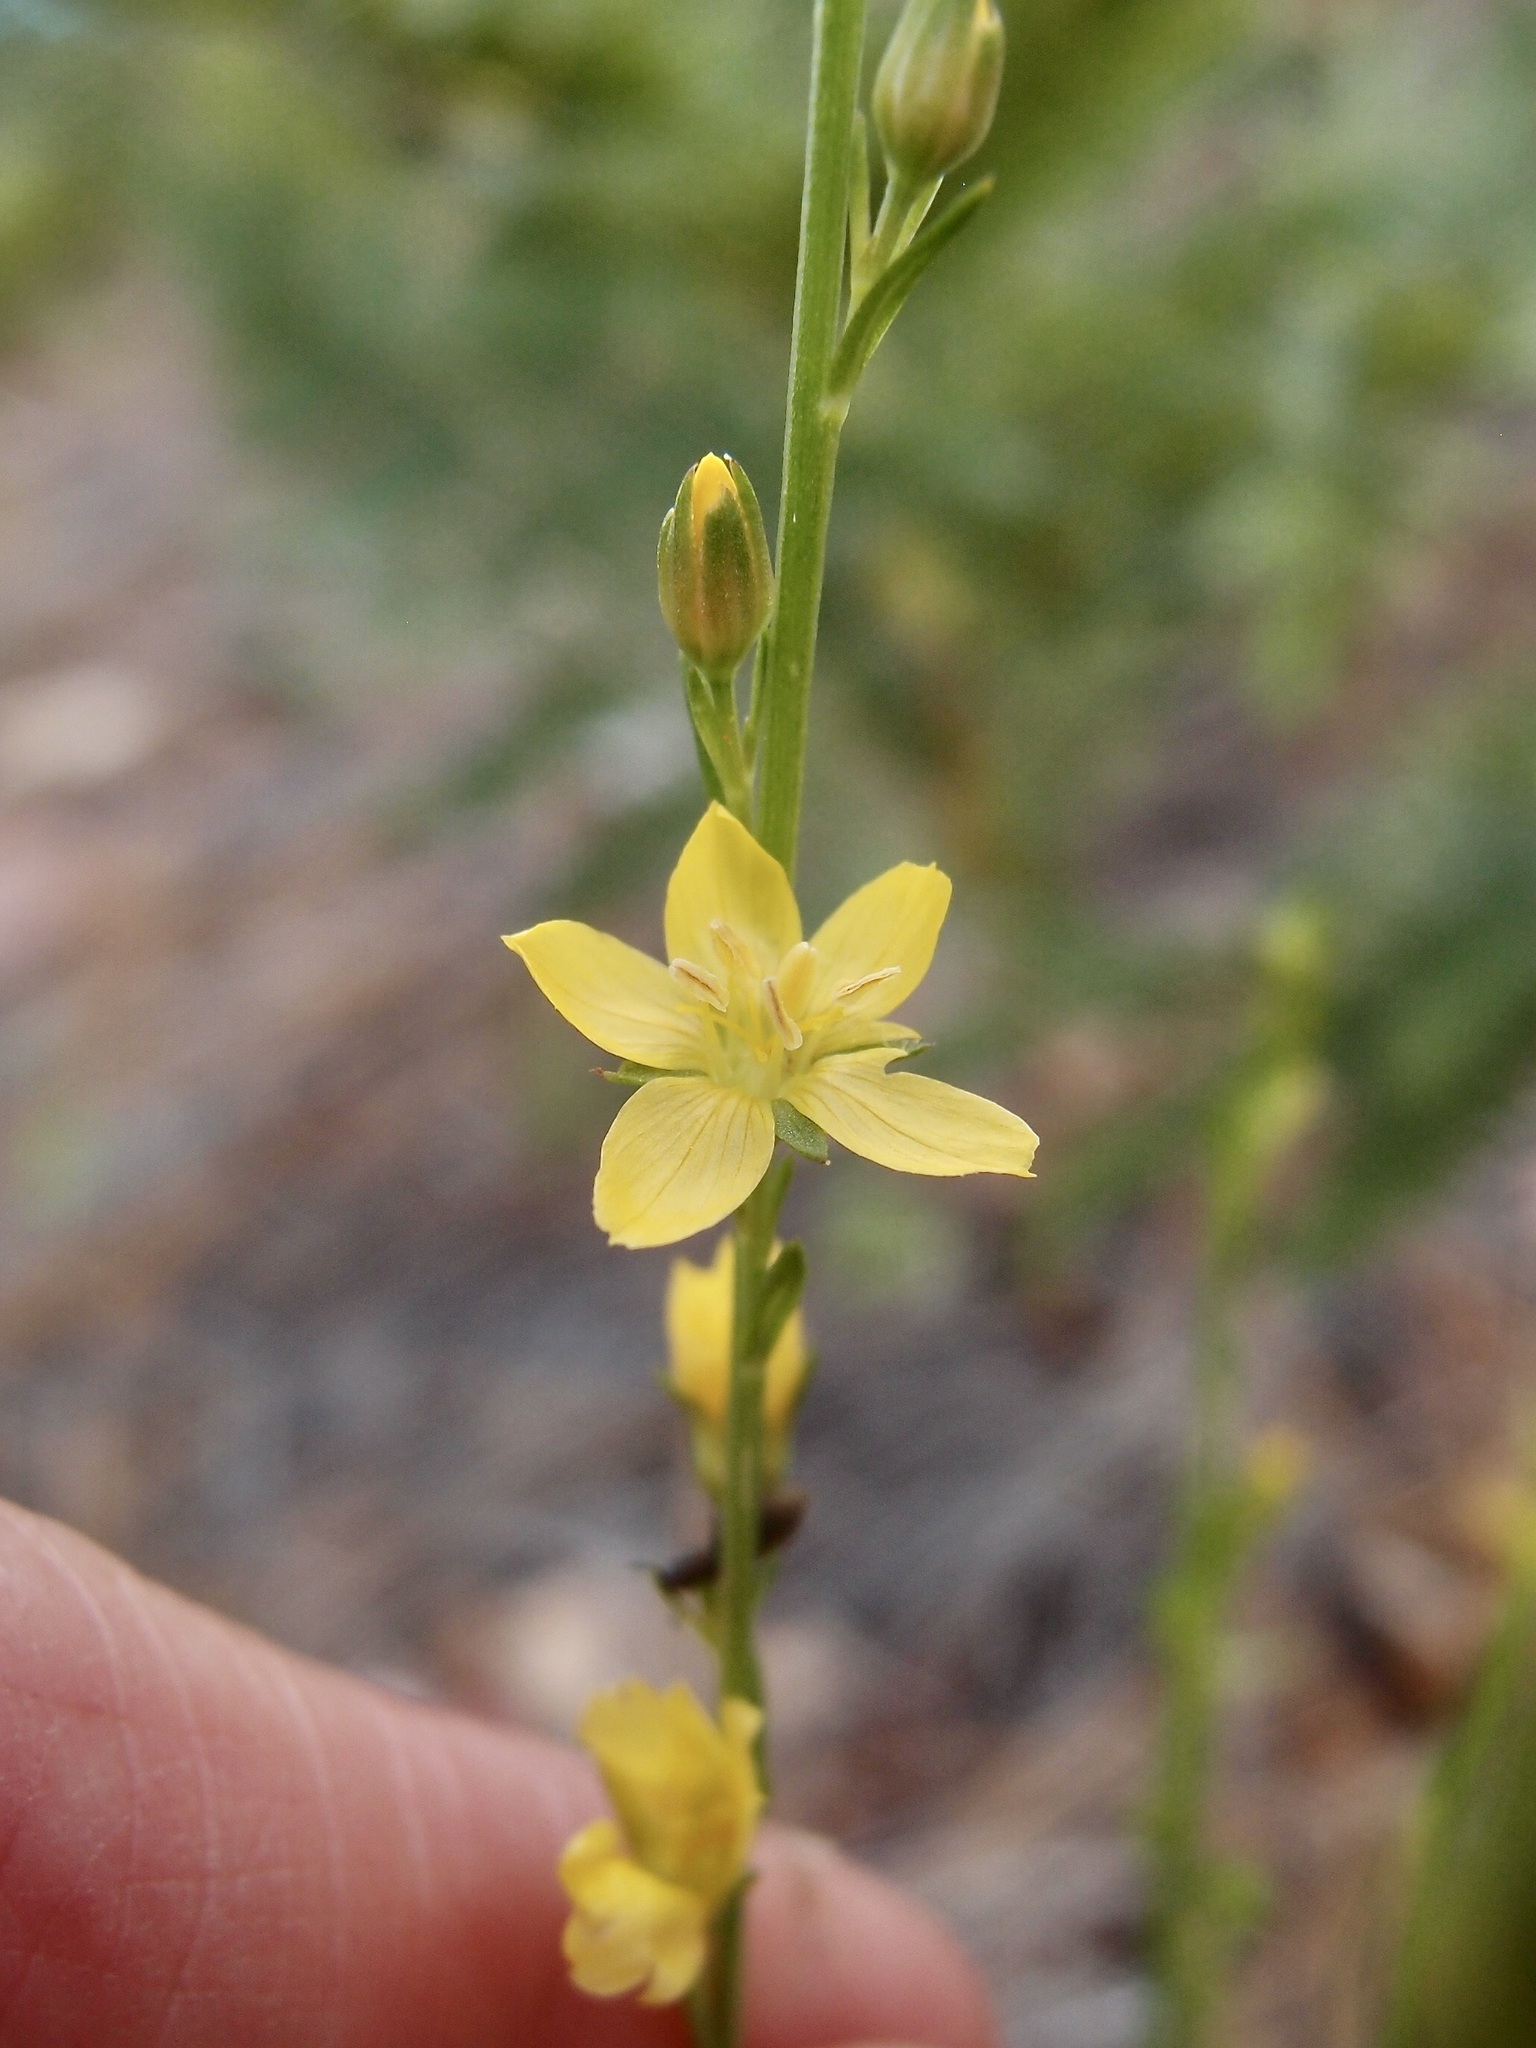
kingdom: Plantae
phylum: Tracheophyta
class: Magnoliopsida
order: Malpighiales
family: Linaceae
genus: Linum
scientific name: Linum neomexicanum
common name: New mexico yellow flax
